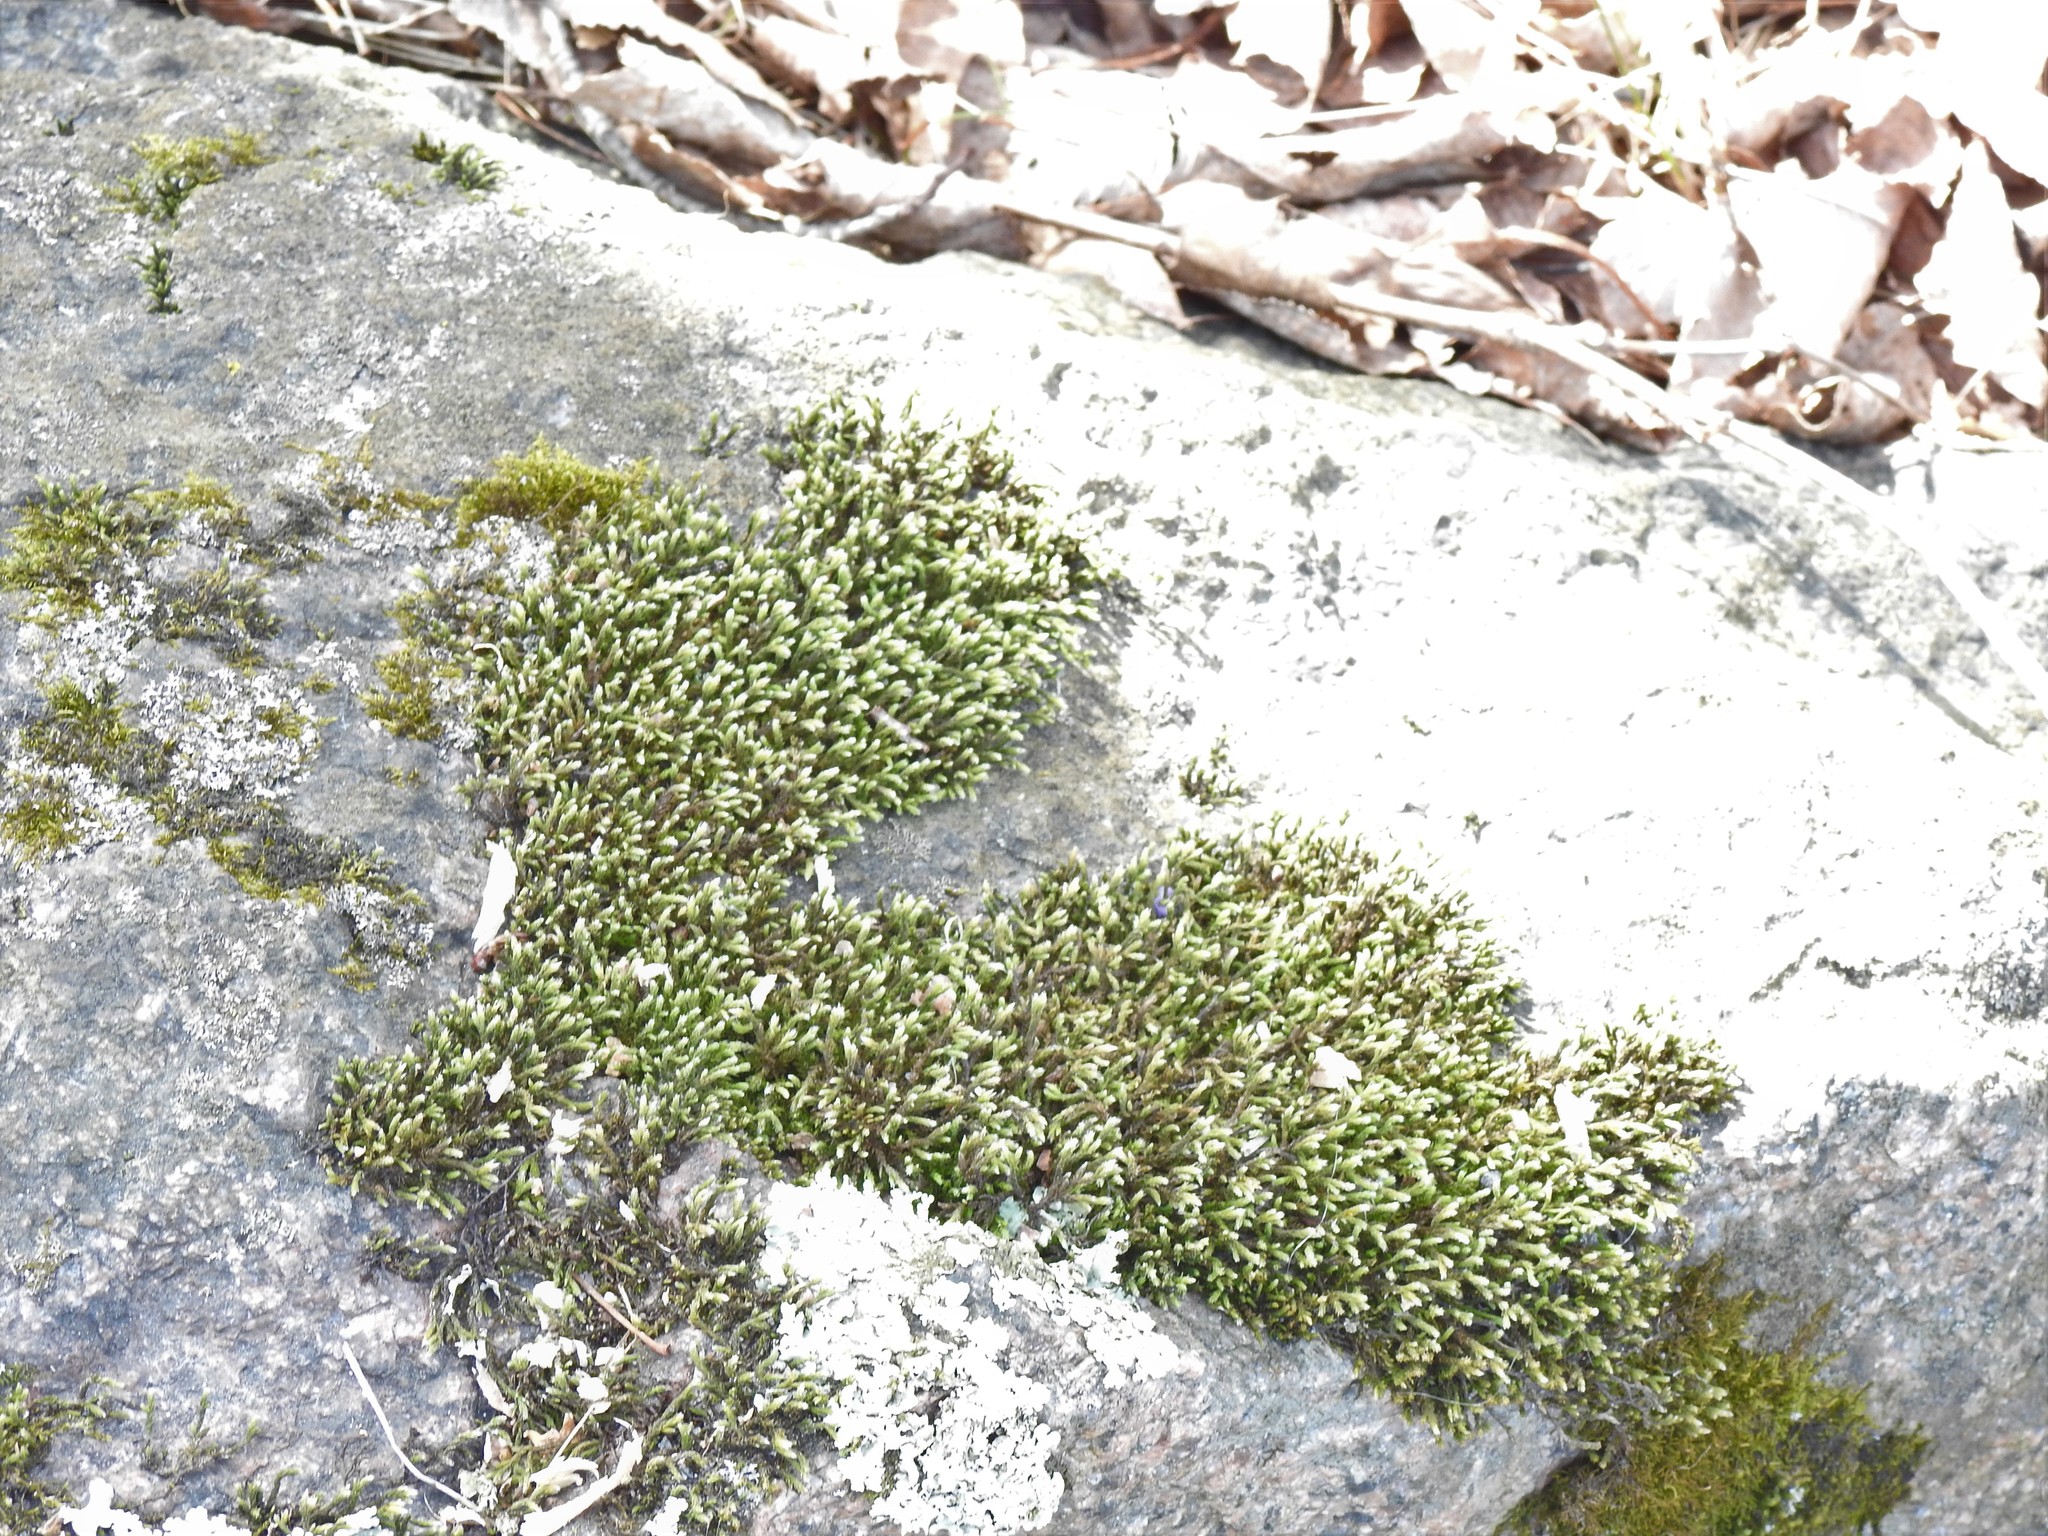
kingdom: Plantae
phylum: Bryophyta
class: Bryopsida
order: Grimmiales
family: Grimmiaceae
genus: Schistidium
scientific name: Schistidium apocarpum
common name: Radiate bloom moss
